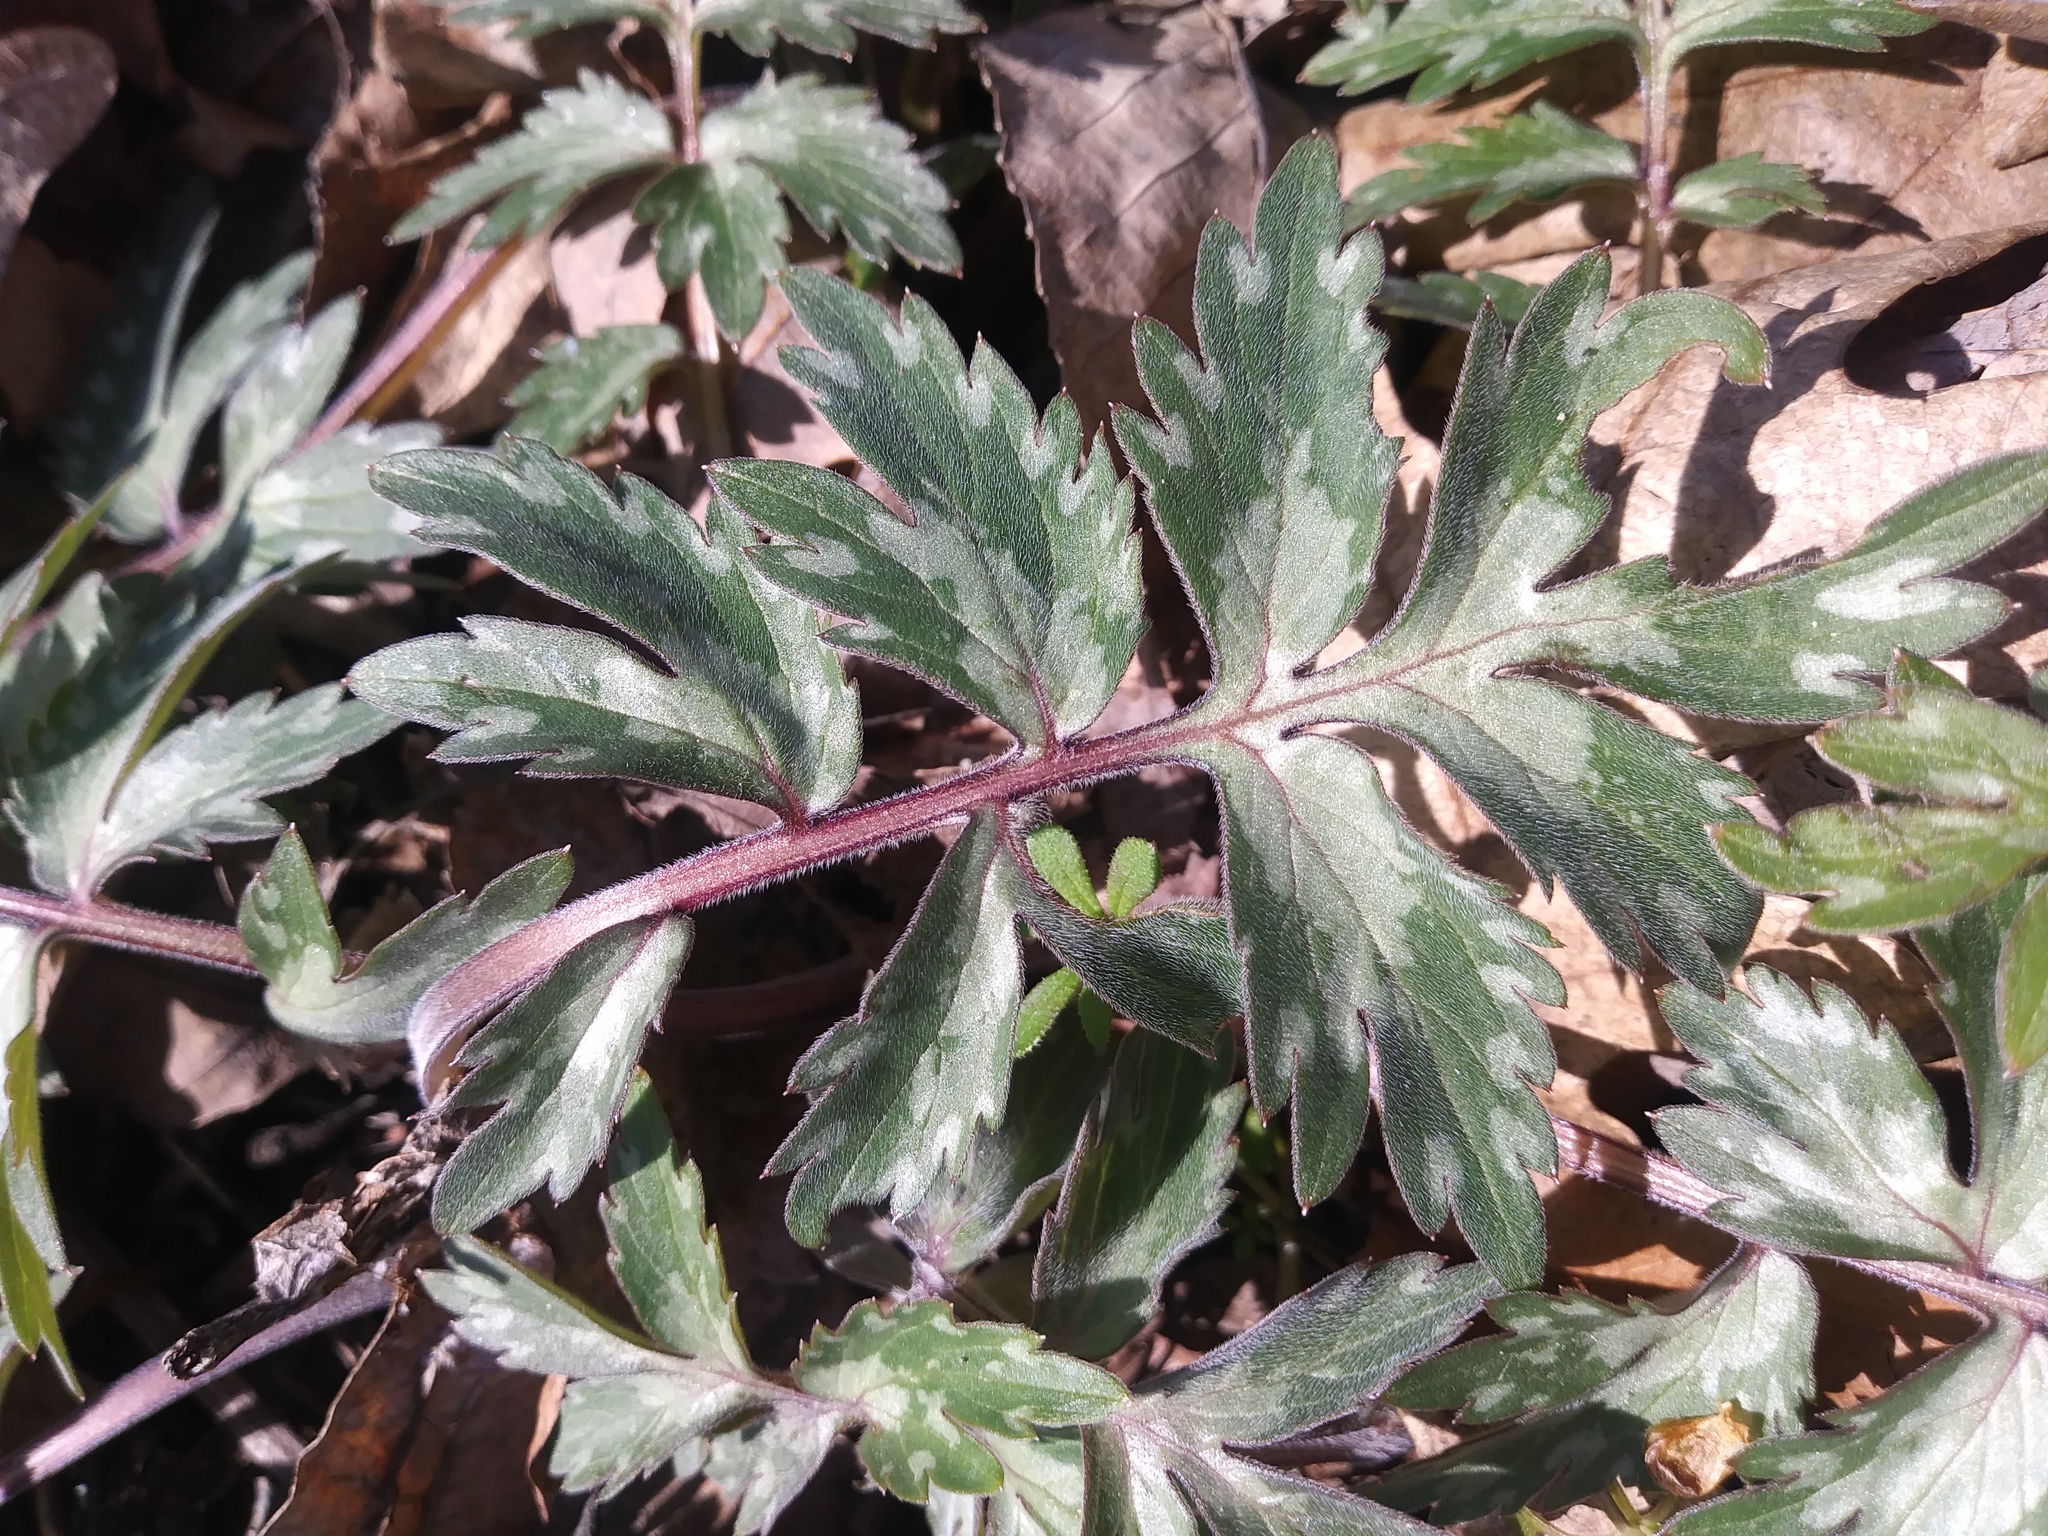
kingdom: Plantae
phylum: Tracheophyta
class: Magnoliopsida
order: Boraginales
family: Hydrophyllaceae
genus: Hydrophyllum
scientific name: Hydrophyllum virginianum
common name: Virginia waterleaf
